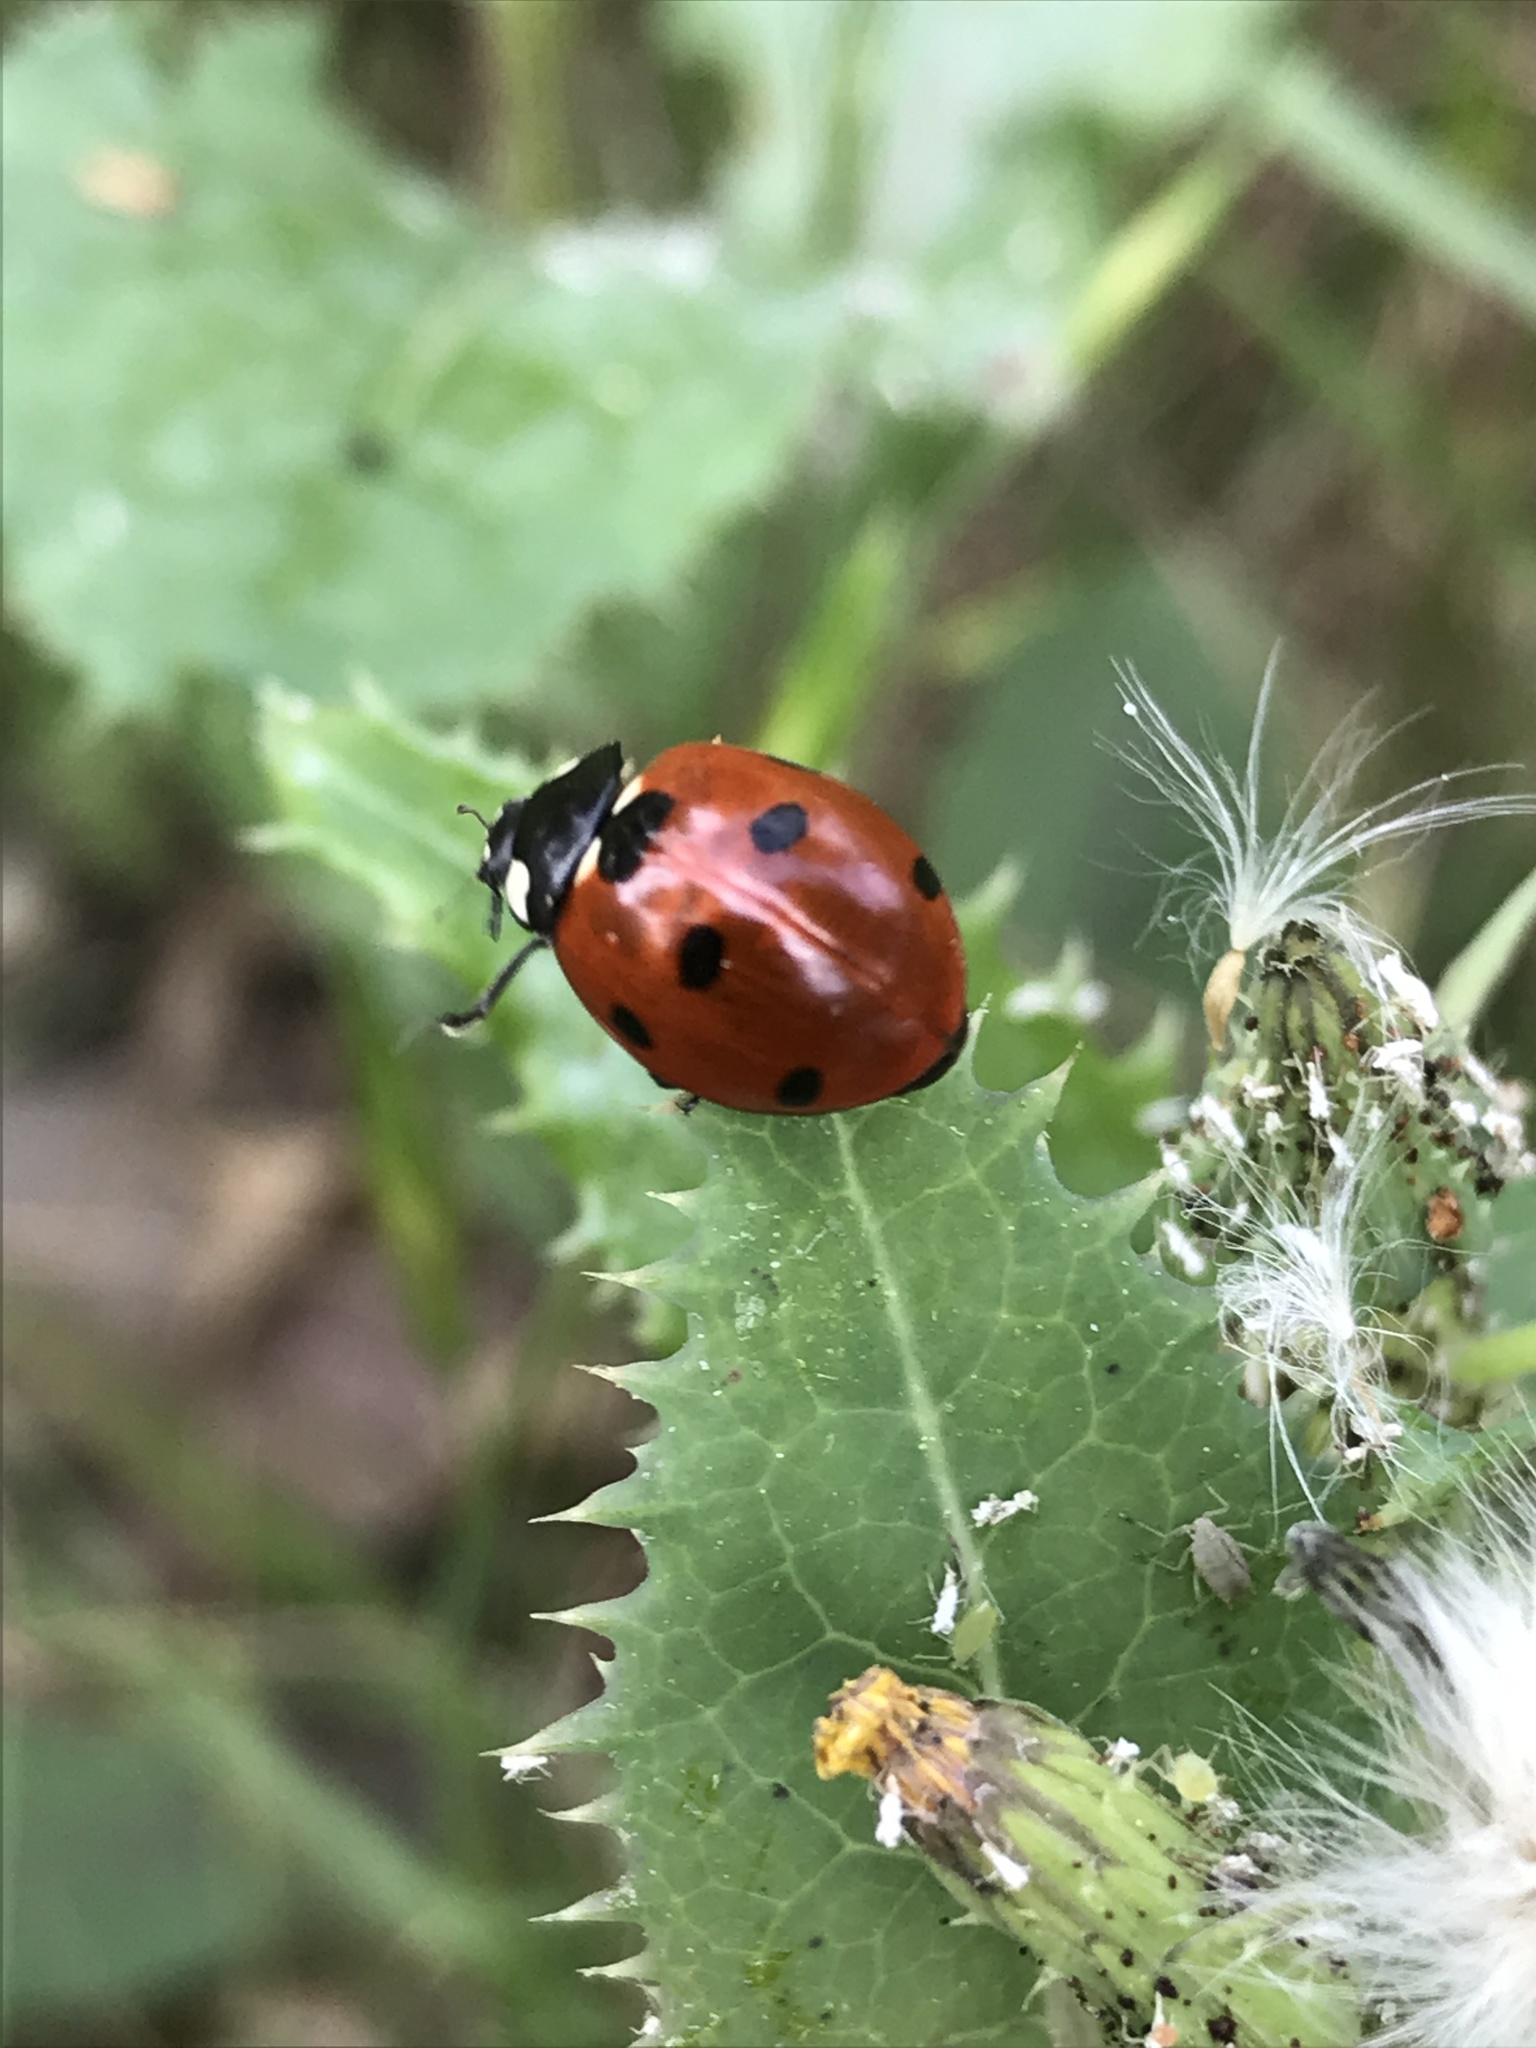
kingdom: Animalia
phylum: Arthropoda
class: Insecta
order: Coleoptera
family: Coccinellidae
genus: Coccinella
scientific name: Coccinella septempunctata
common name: Sevenspotted lady beetle
